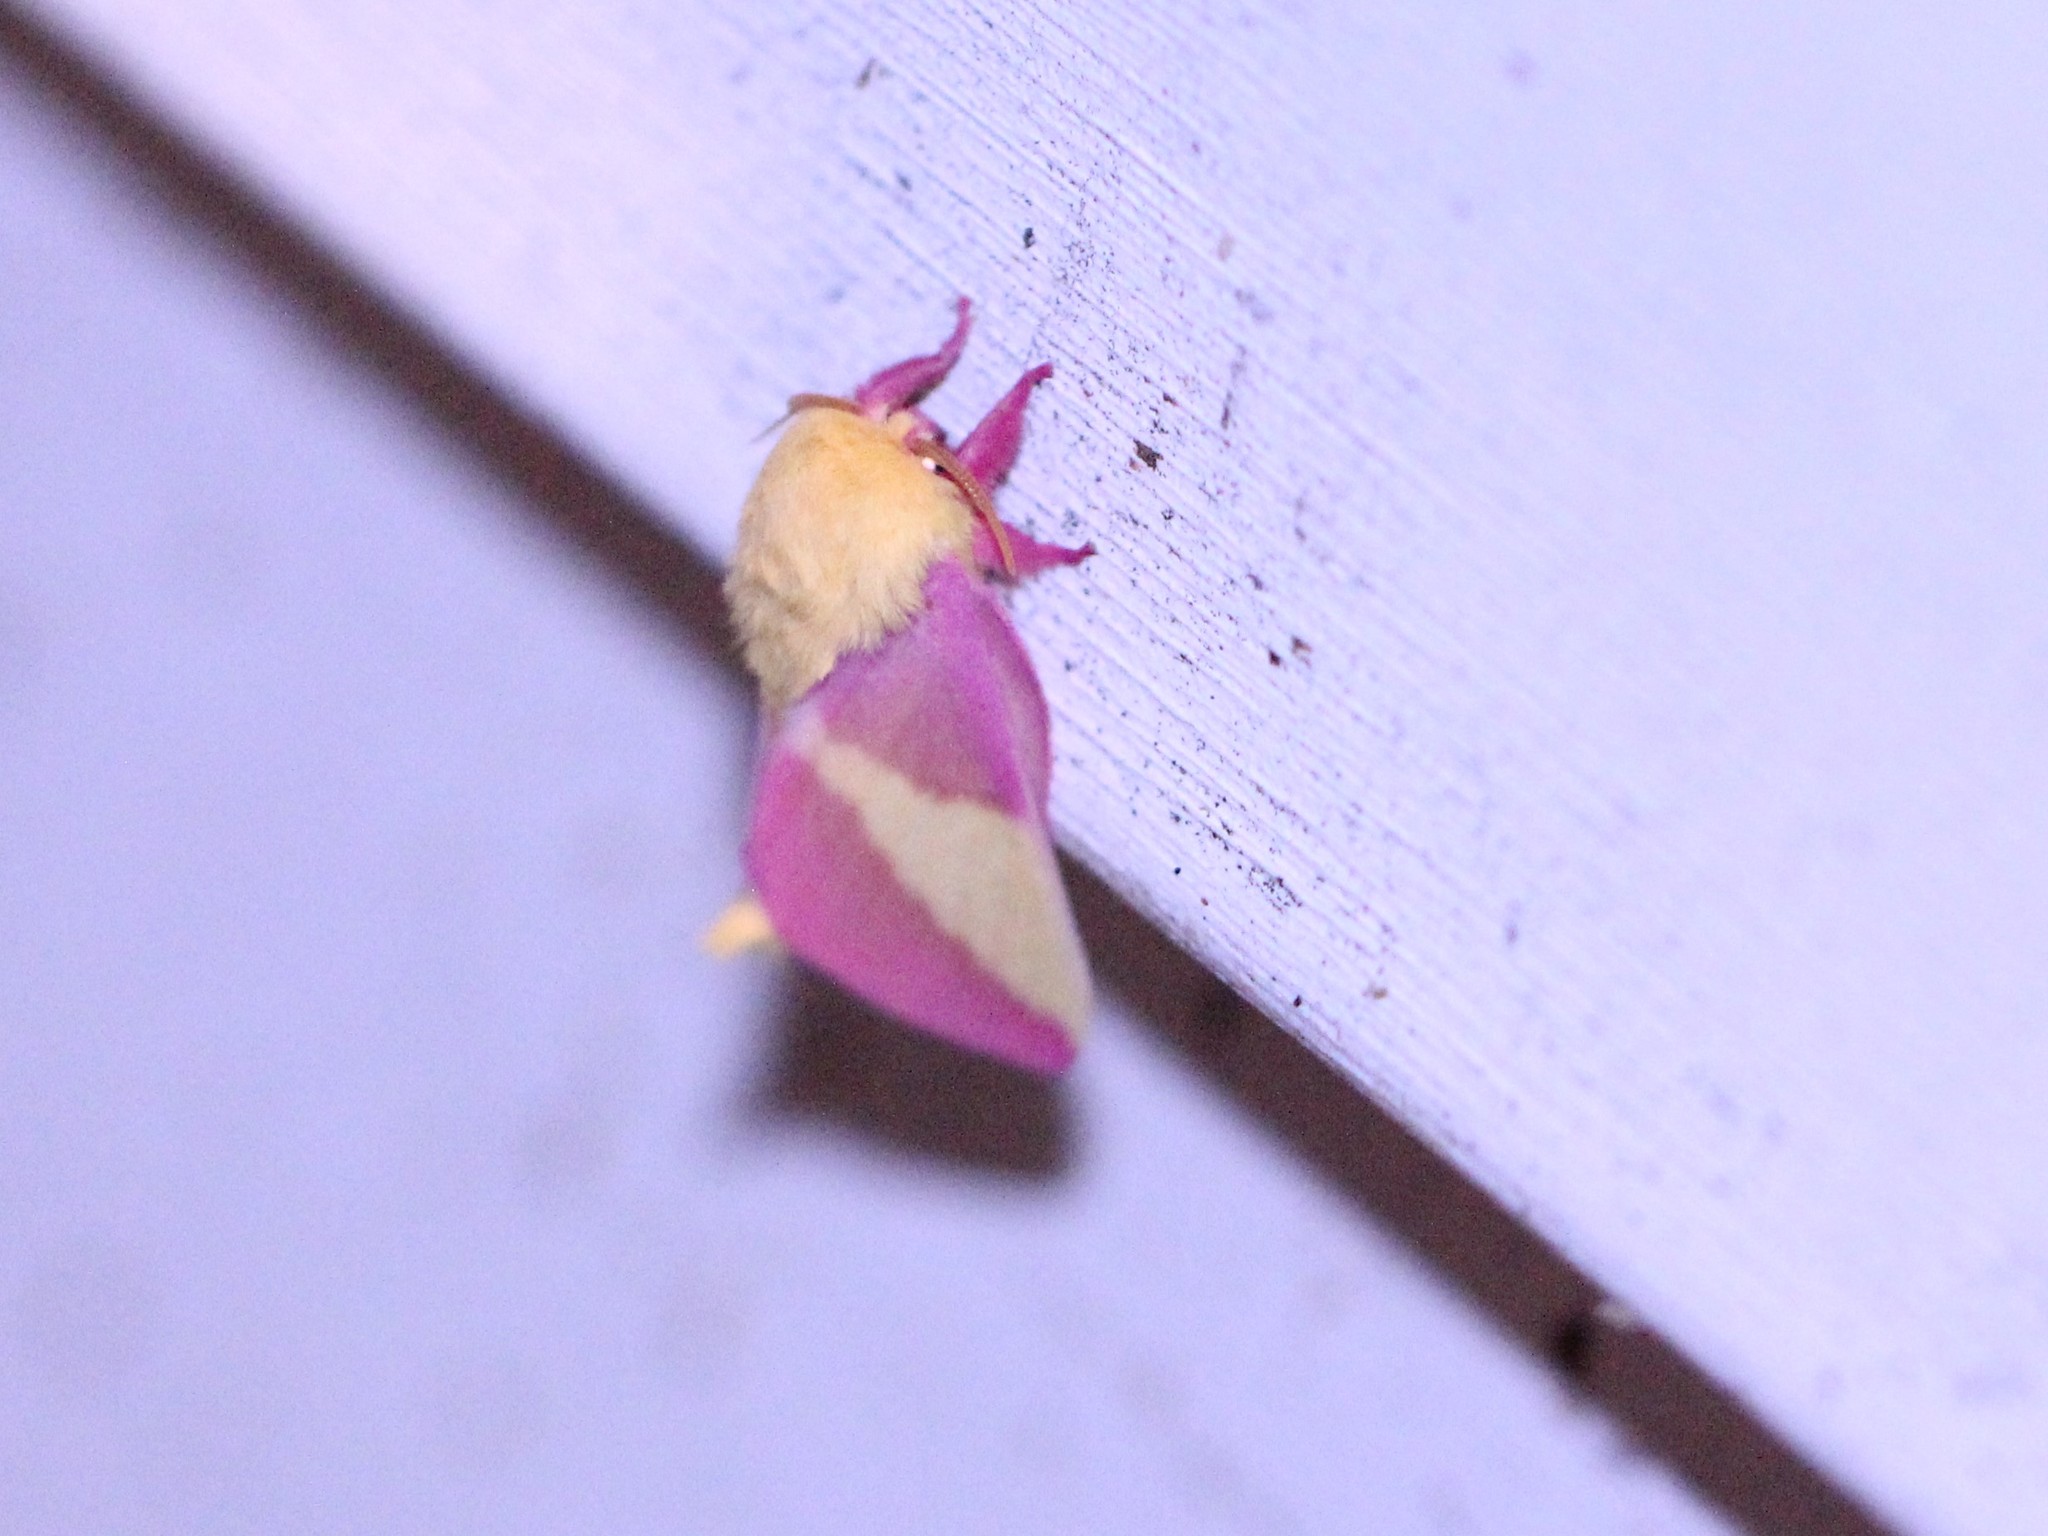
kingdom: Animalia
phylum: Arthropoda
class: Insecta
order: Lepidoptera
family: Saturniidae
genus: Dryocampa
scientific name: Dryocampa rubicunda
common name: Rosy maple moth
